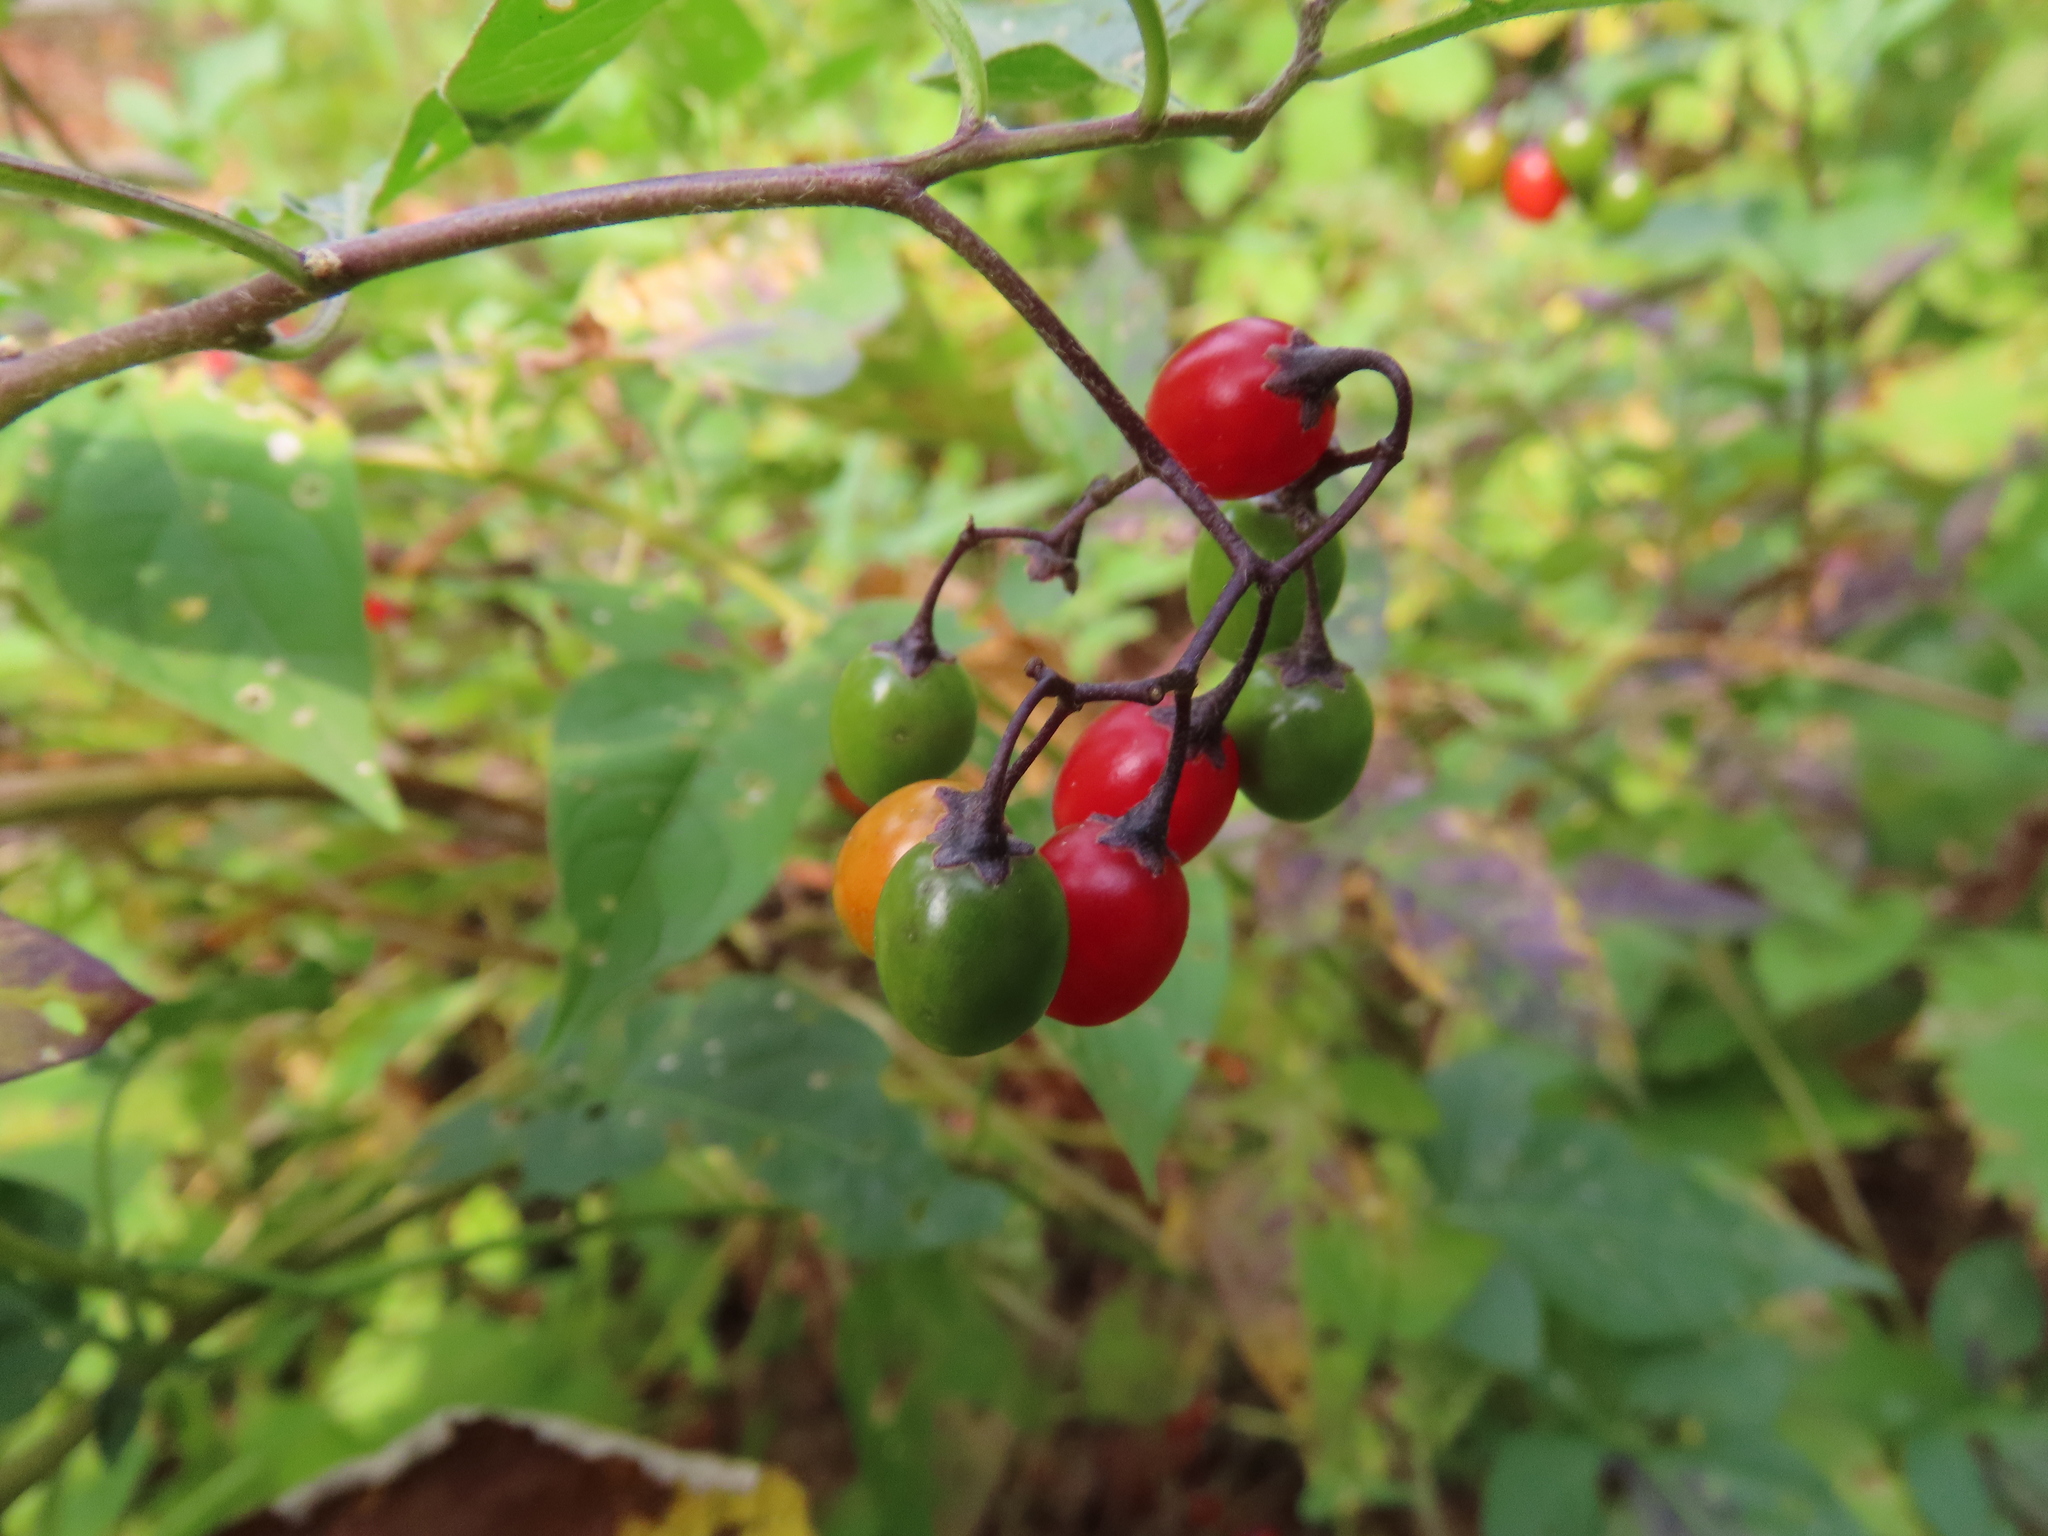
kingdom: Plantae
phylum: Tracheophyta
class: Magnoliopsida
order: Solanales
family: Solanaceae
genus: Solanum
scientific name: Solanum dulcamara
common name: Climbing nightshade
